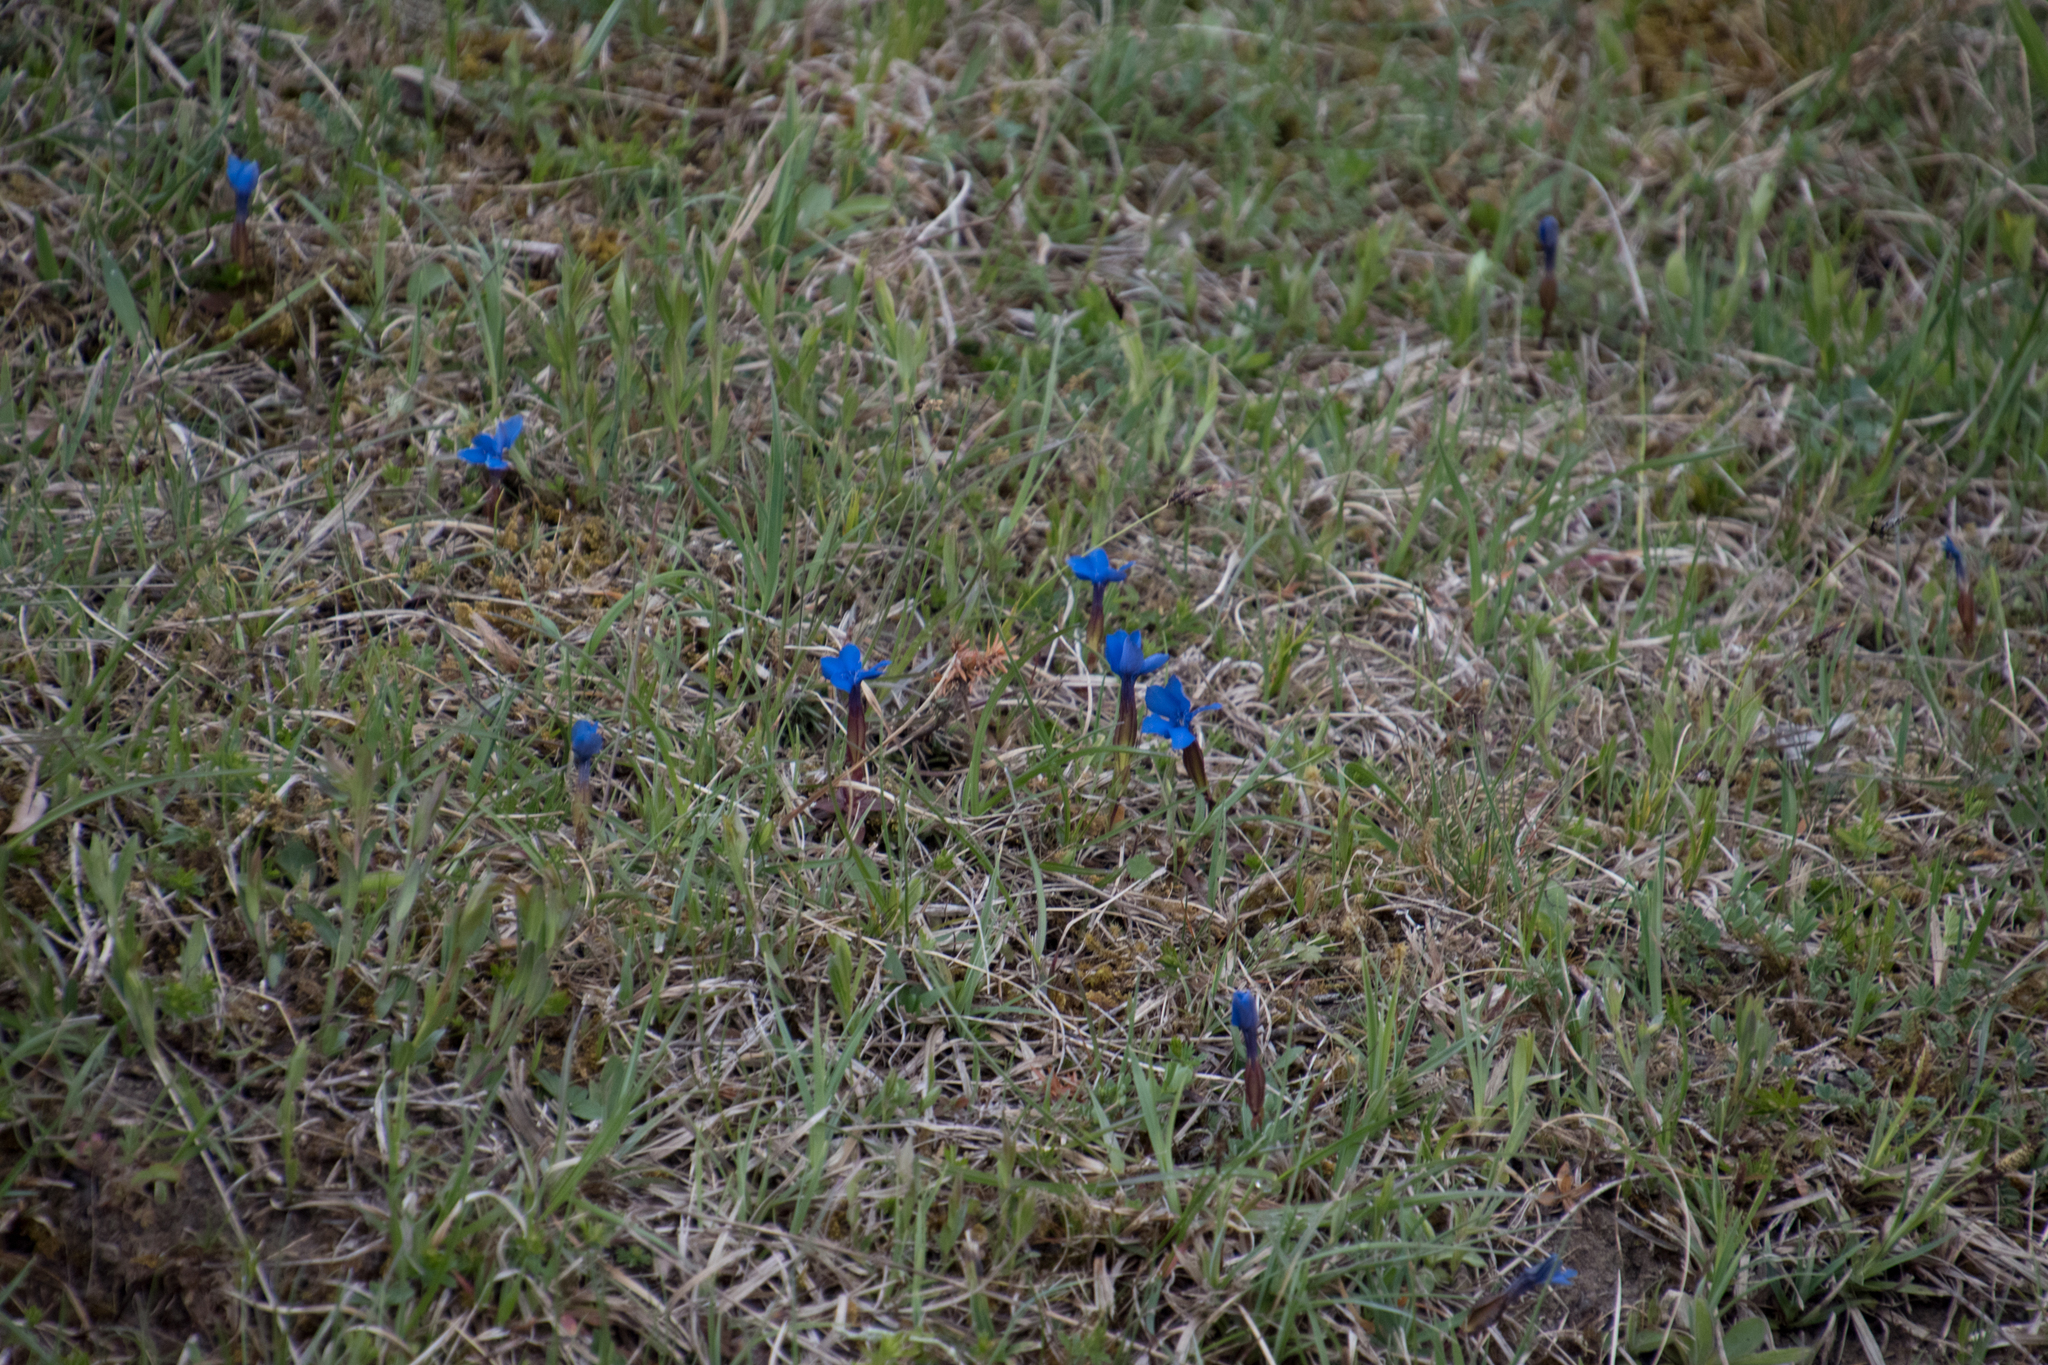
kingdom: Plantae
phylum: Tracheophyta
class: Magnoliopsida
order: Gentianales
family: Gentianaceae
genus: Gentiana
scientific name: Gentiana verna
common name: Spring gentian
